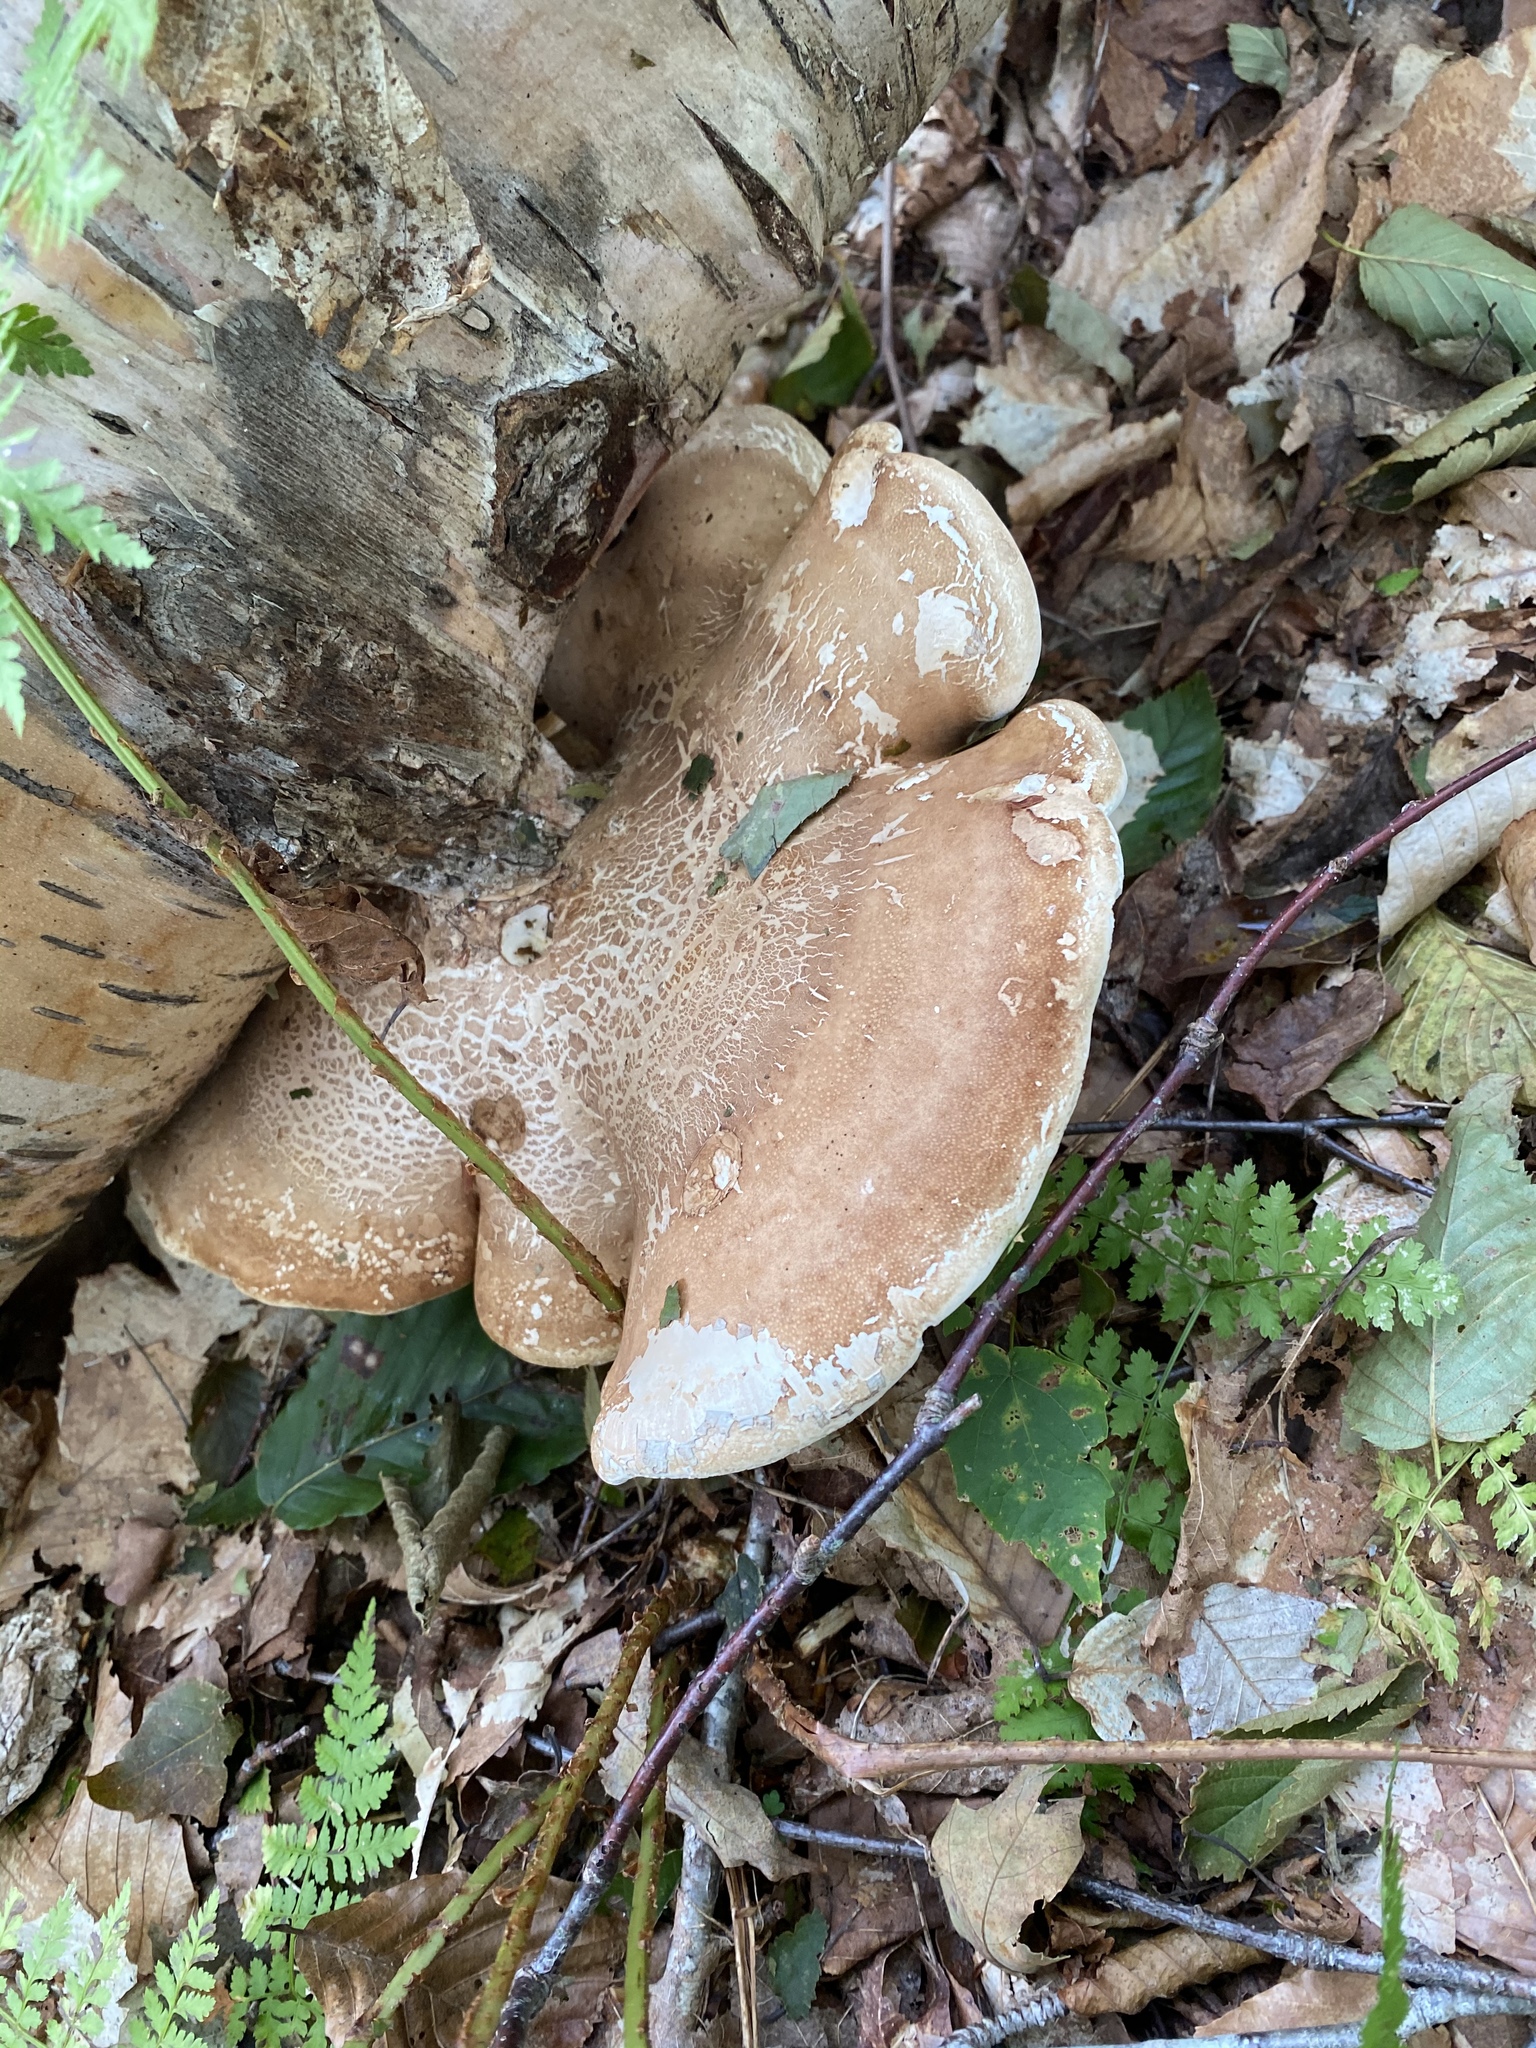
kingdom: Fungi
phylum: Basidiomycota
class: Agaricomycetes
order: Polyporales
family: Fomitopsidaceae
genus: Fomitopsis
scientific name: Fomitopsis betulina
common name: Birch polypore
